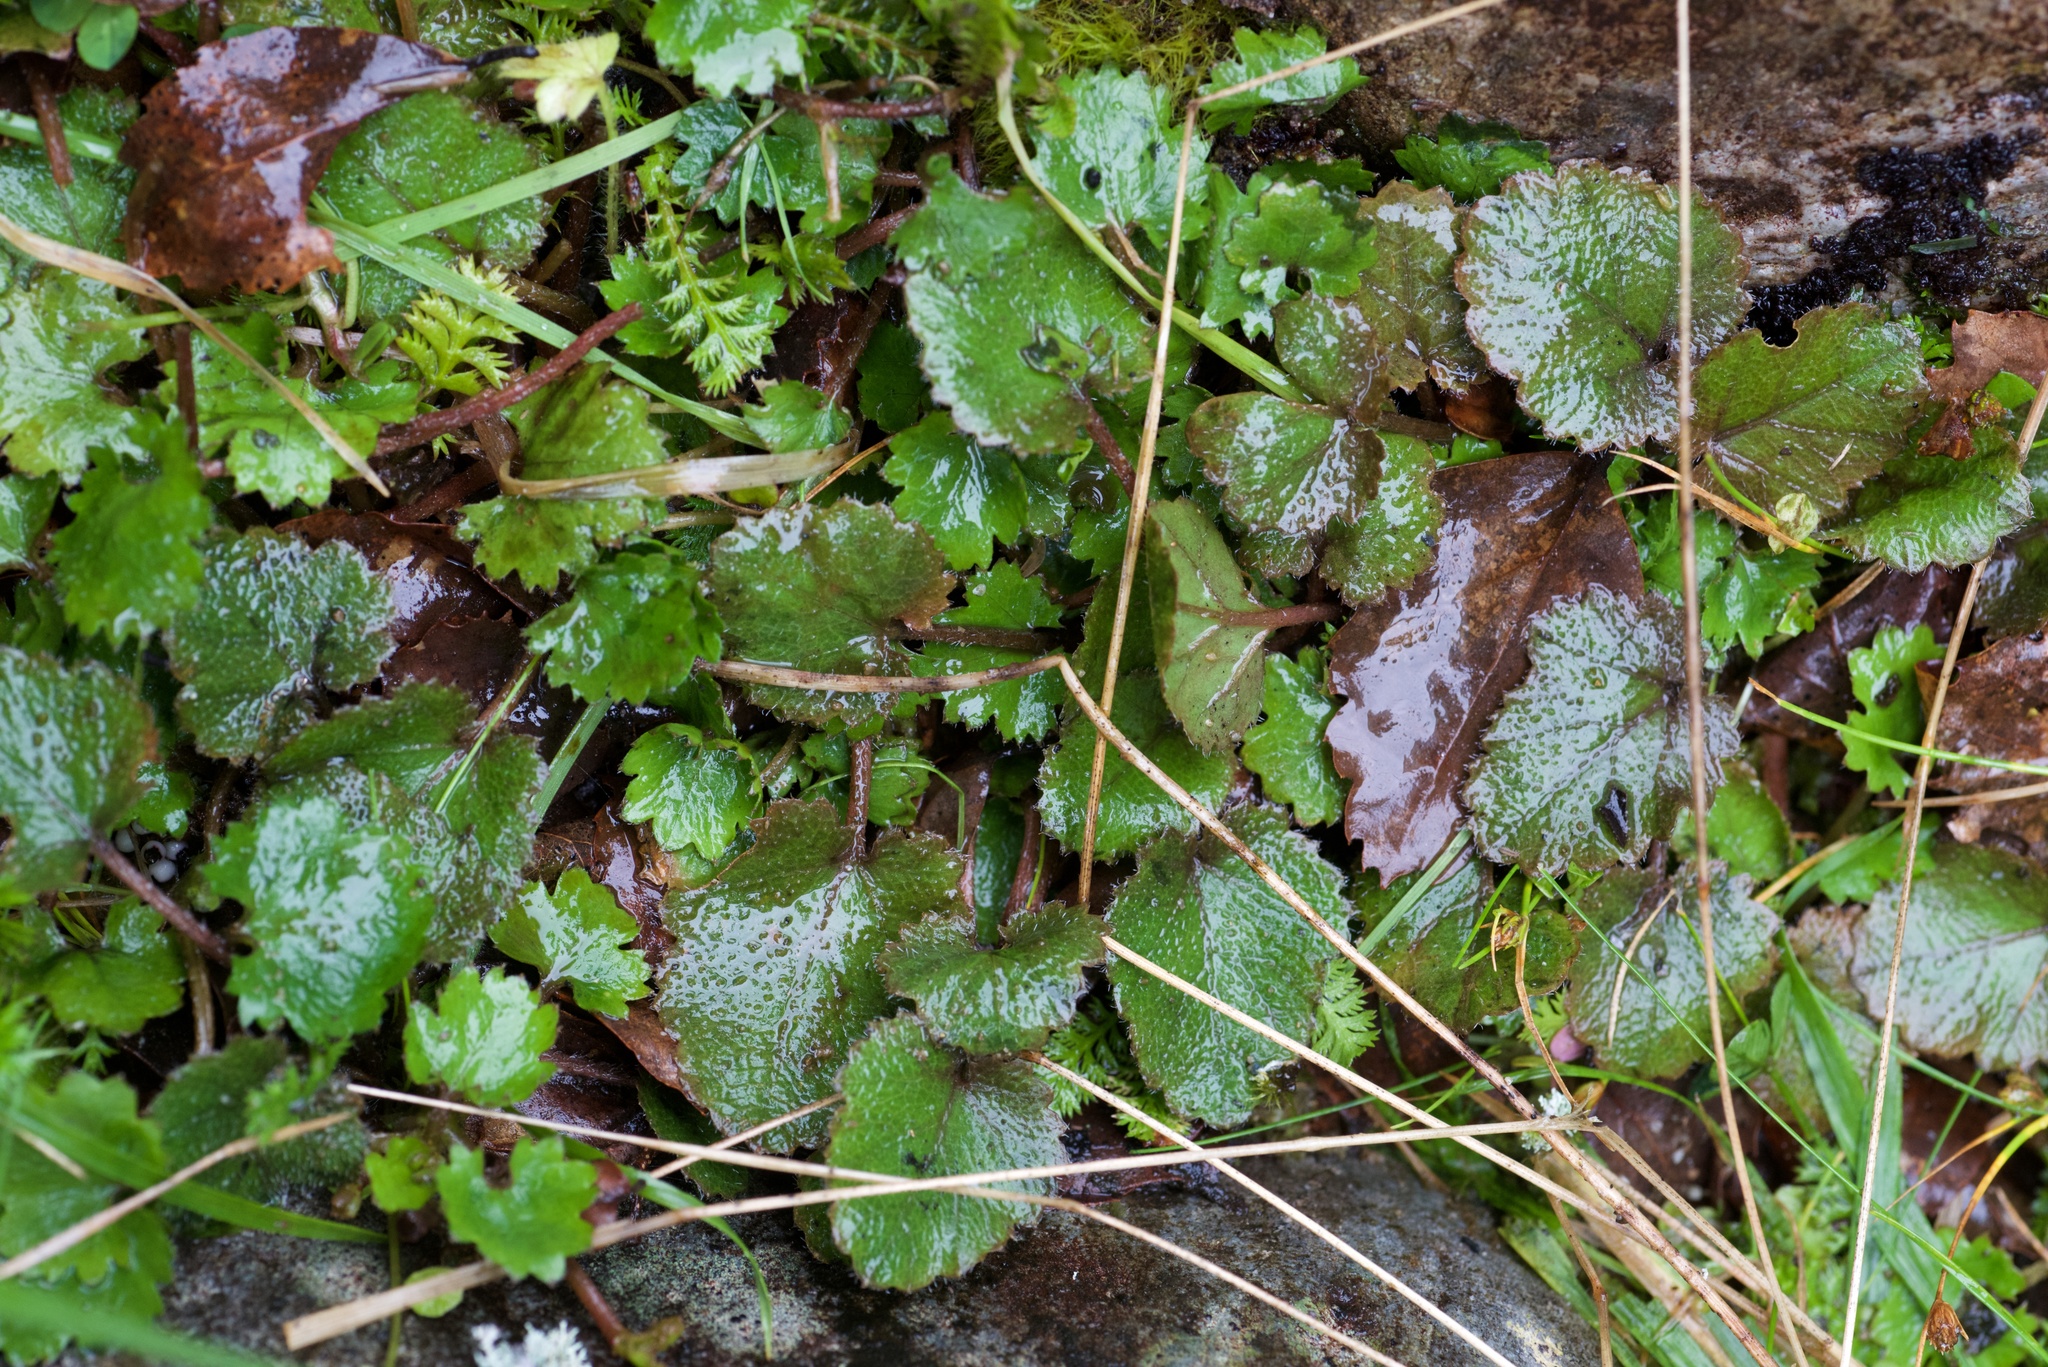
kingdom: Plantae
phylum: Tracheophyta
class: Magnoliopsida
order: Gunnerales
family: Gunneraceae
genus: Gunnera
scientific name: Gunnera monoica
